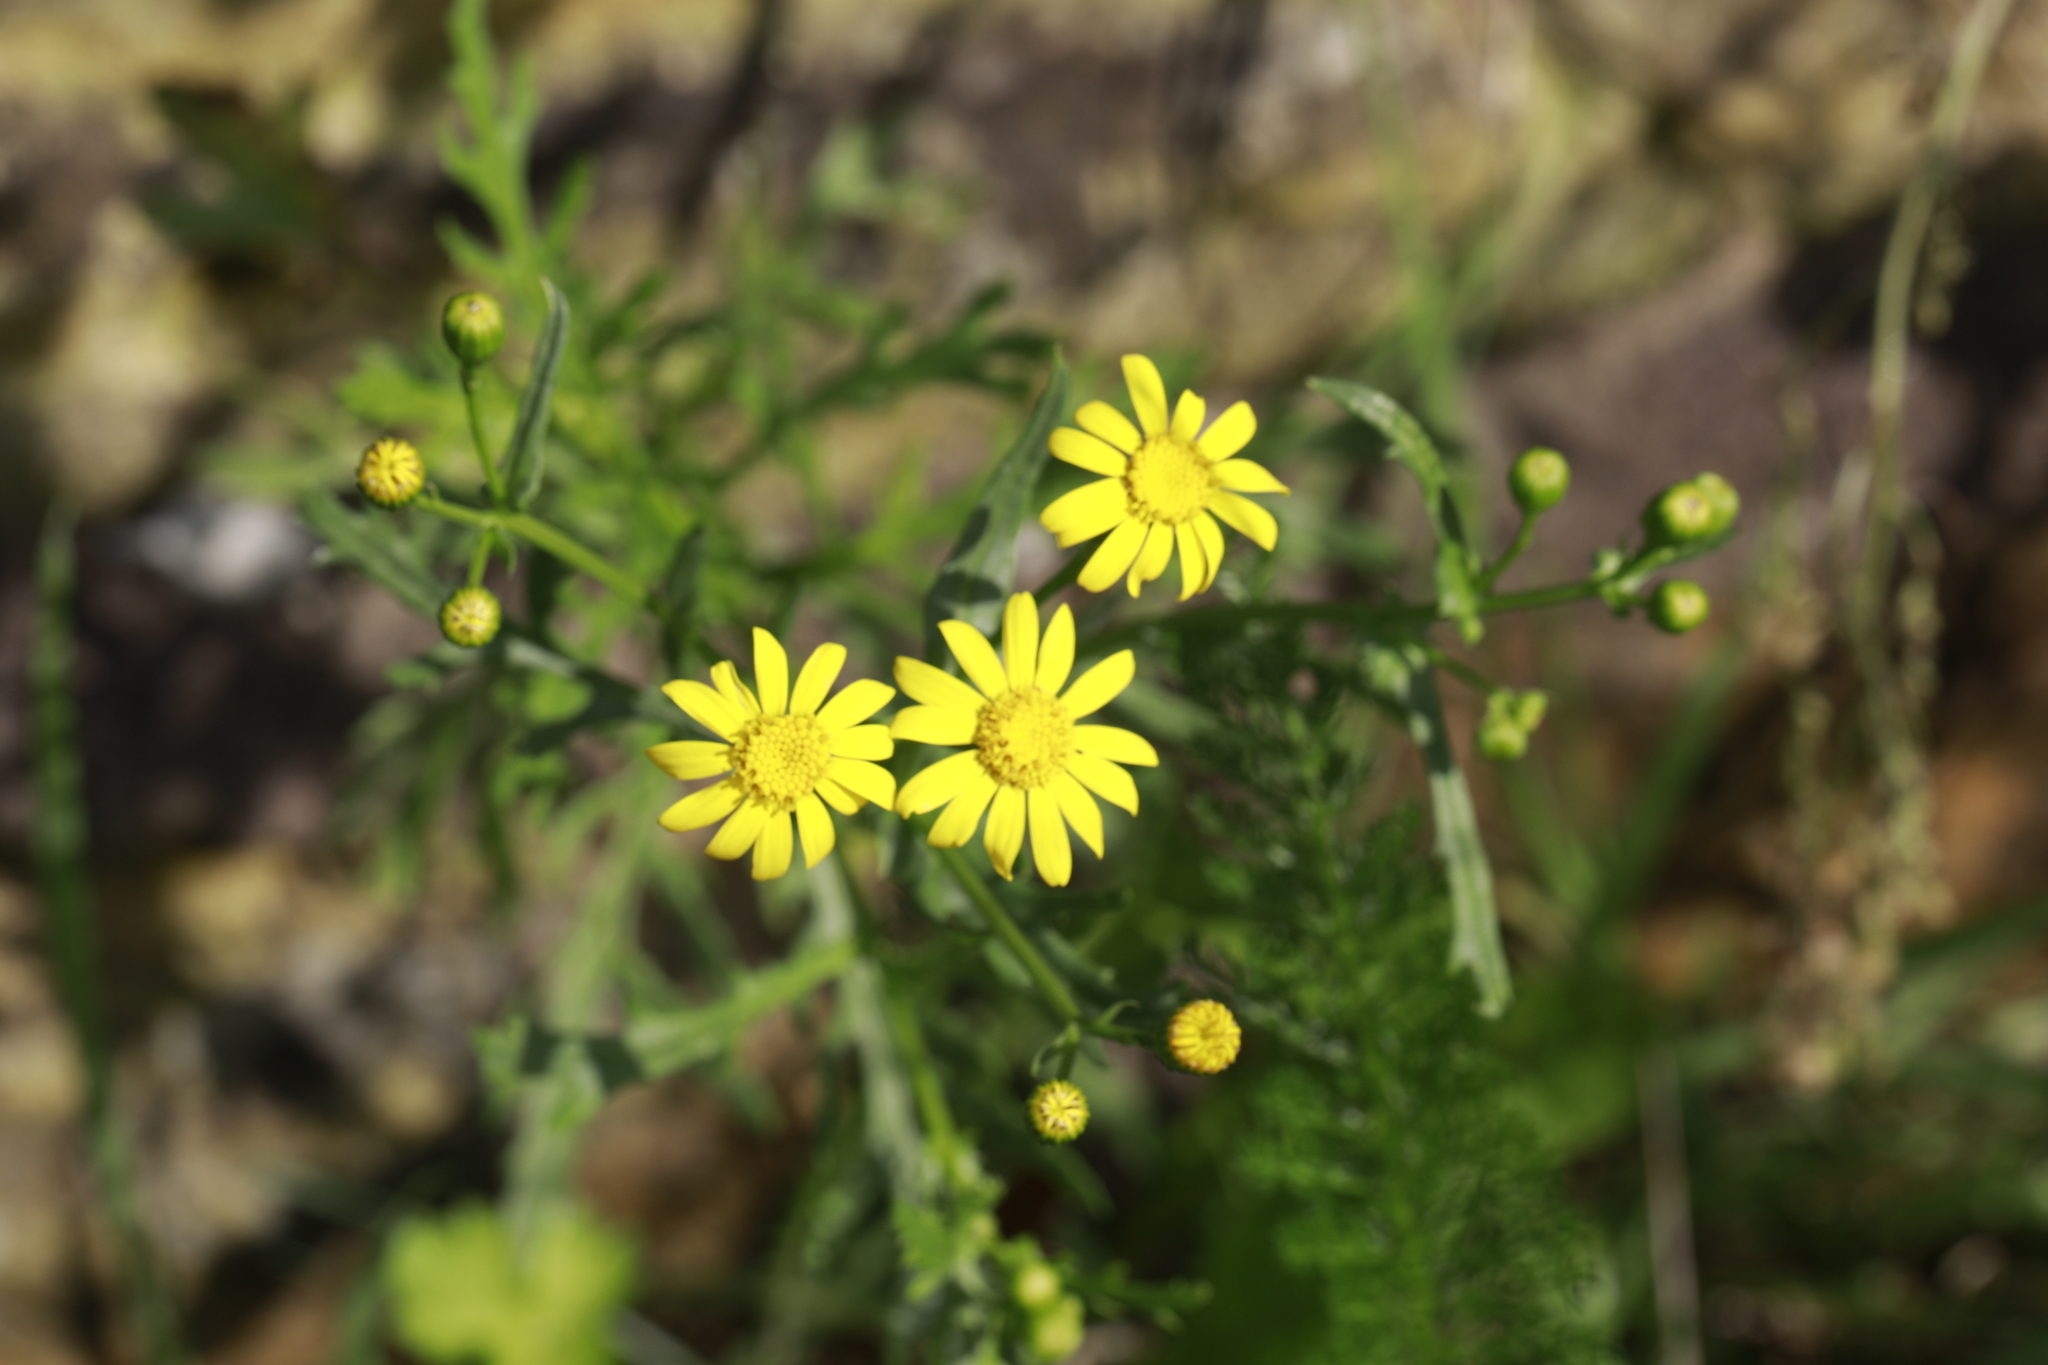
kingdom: Plantae
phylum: Tracheophyta
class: Magnoliopsida
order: Asterales
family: Asteraceae
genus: Senecio
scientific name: Senecio squalidus
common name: Oxford ragwort
